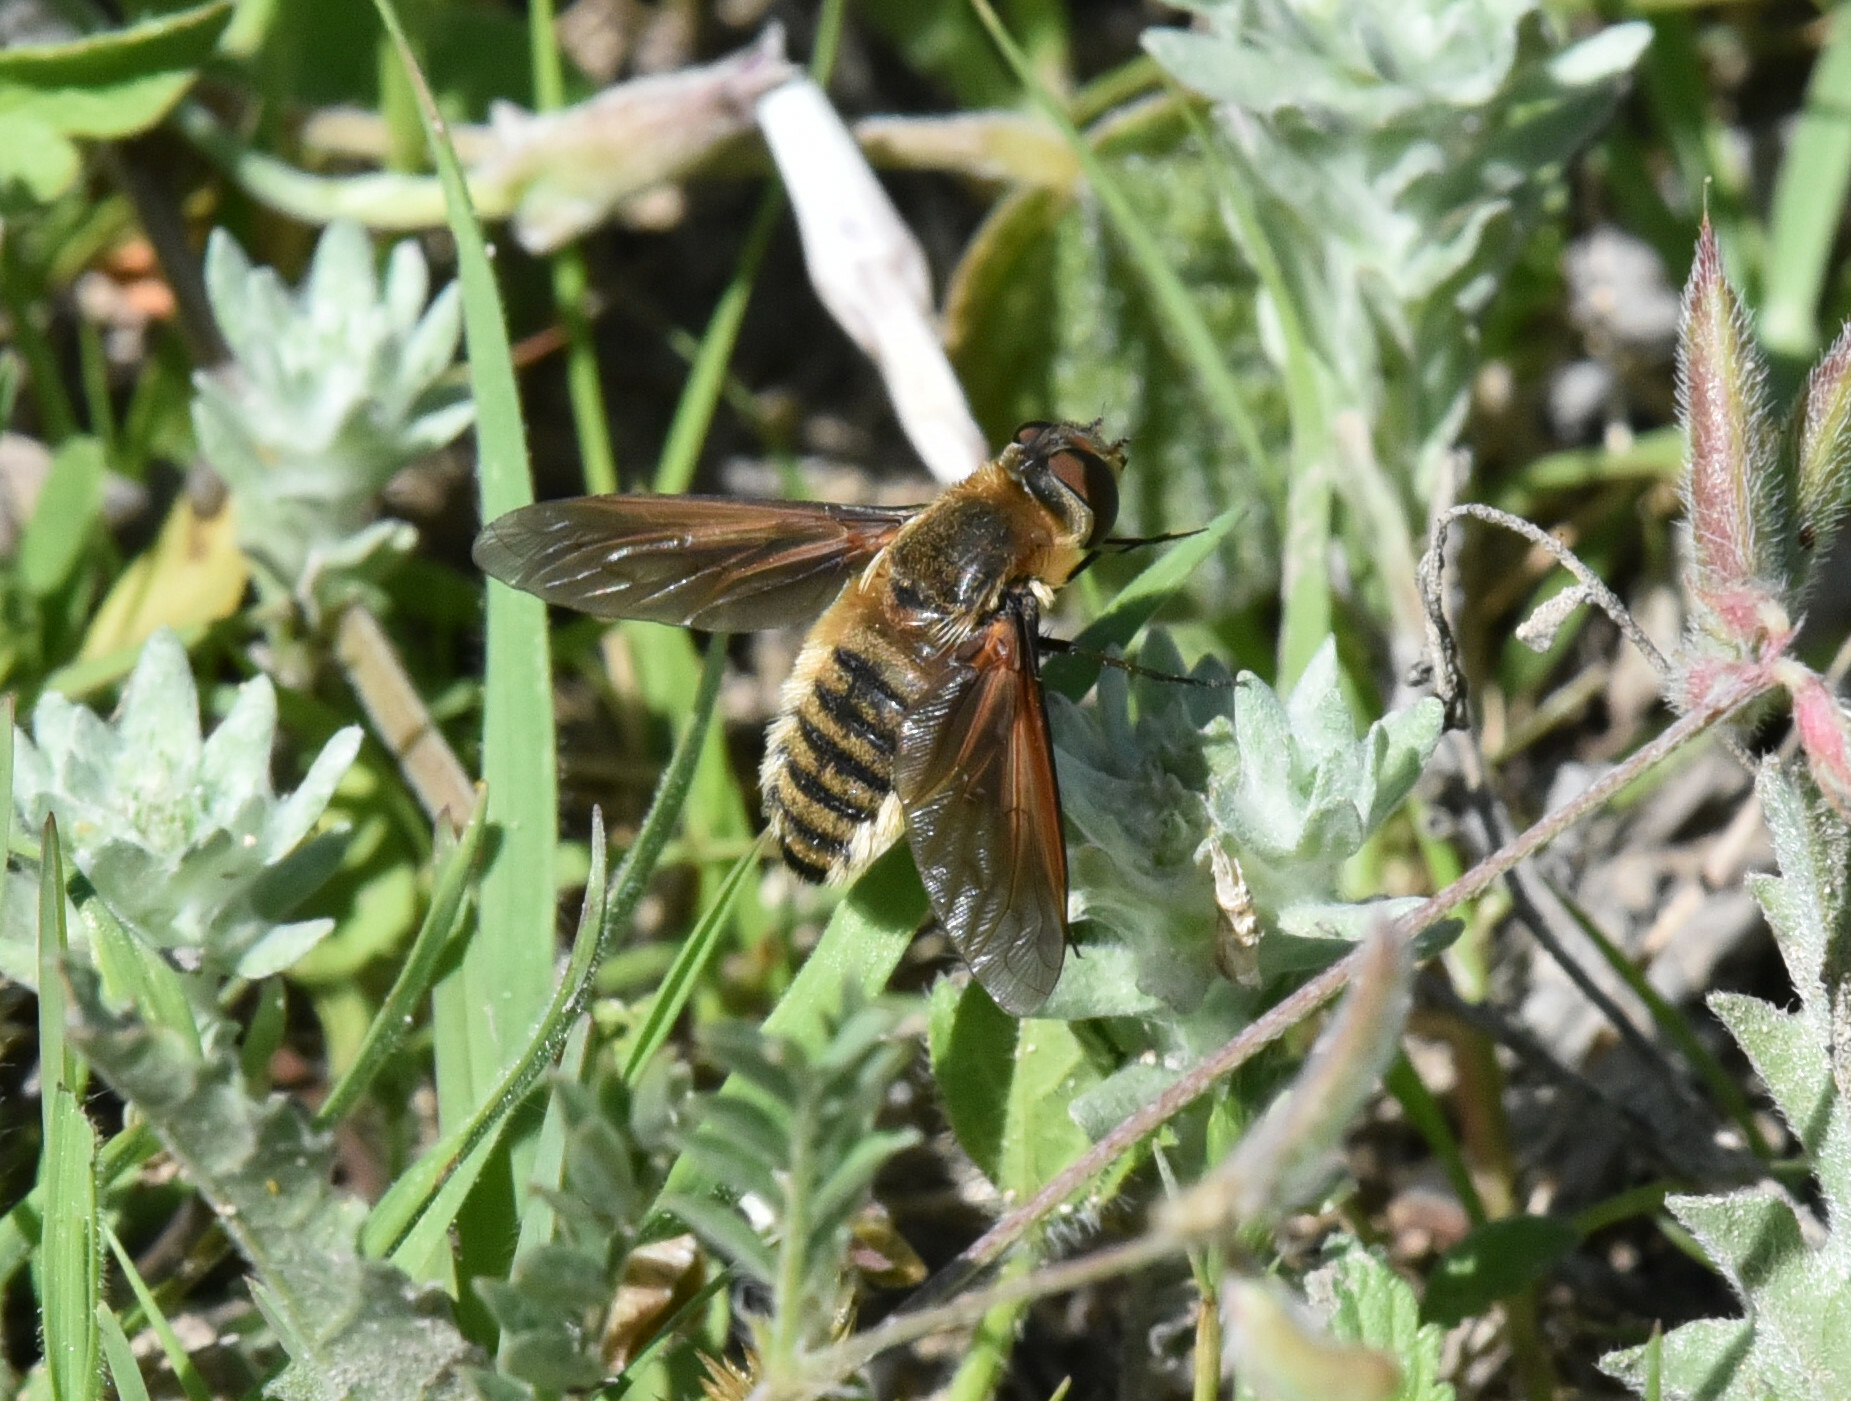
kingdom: Animalia
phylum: Arthropoda
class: Insecta
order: Diptera
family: Bombyliidae
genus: Poecilanthrax
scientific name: Poecilanthrax lucifer
